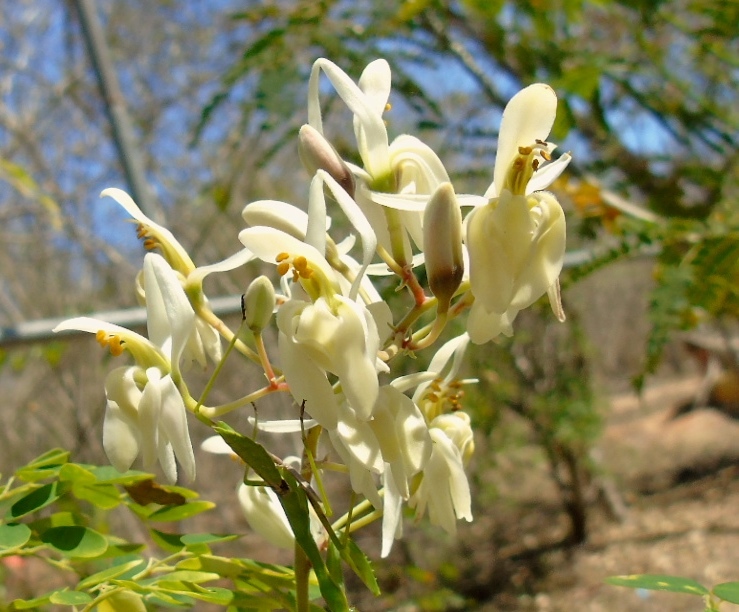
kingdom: Plantae
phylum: Tracheophyta
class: Magnoliopsida
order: Brassicales
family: Moringaceae
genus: Moringa
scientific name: Moringa oleifera
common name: Horseradish-tree
